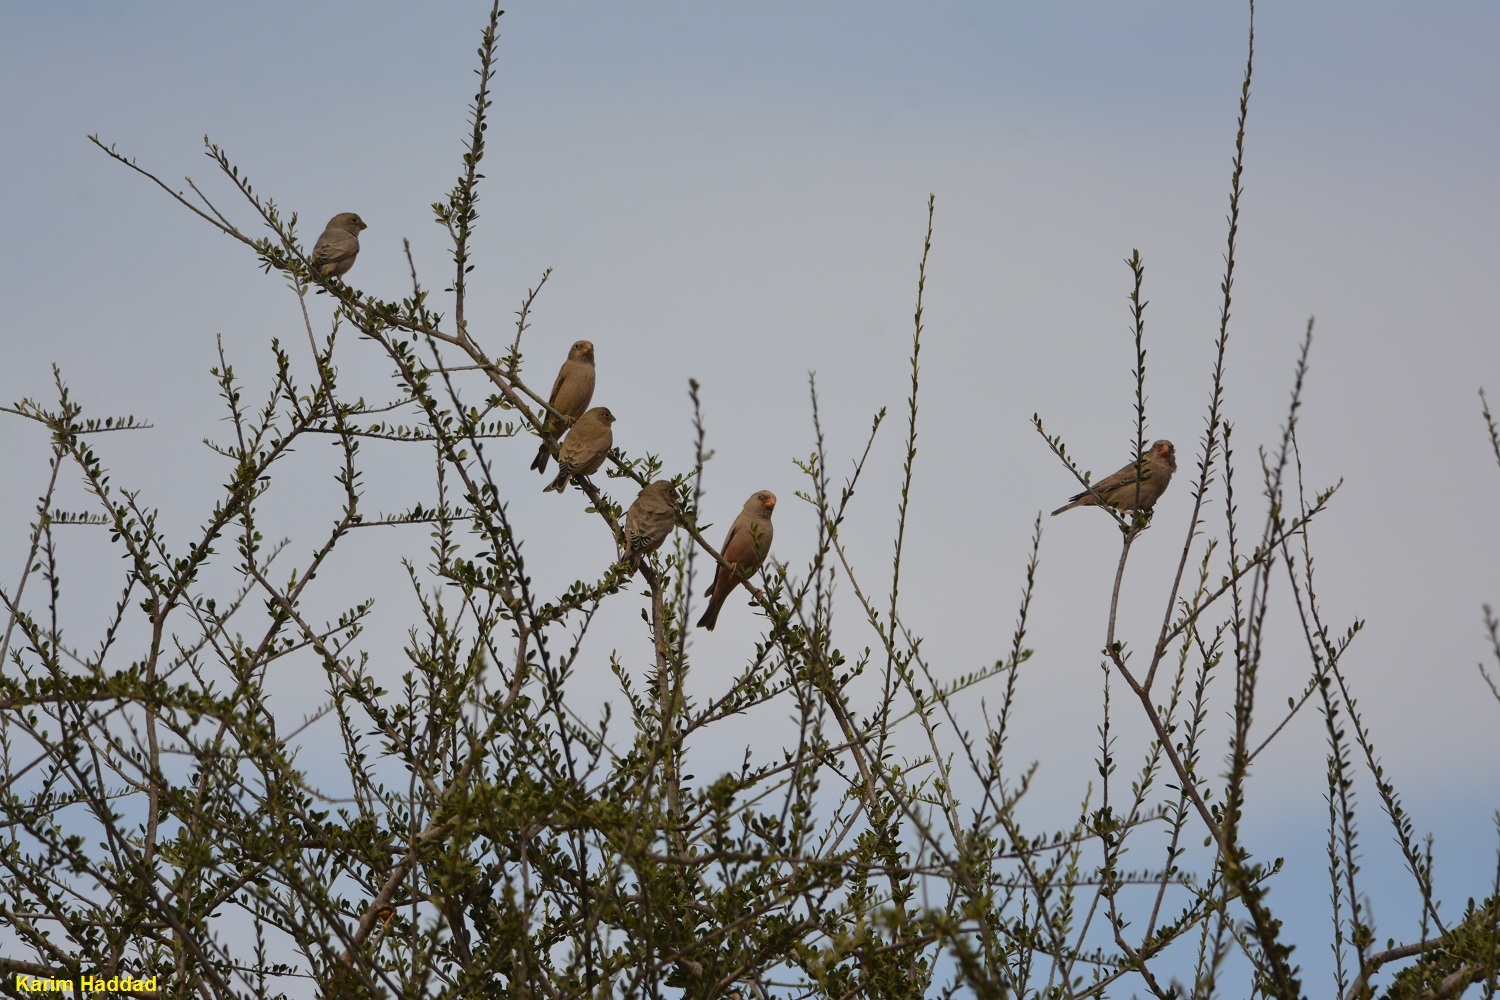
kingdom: Animalia
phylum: Chordata
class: Aves
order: Passeriformes
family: Fringillidae
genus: Bucanetes
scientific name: Bucanetes githagineus
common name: Trumpeter finch
